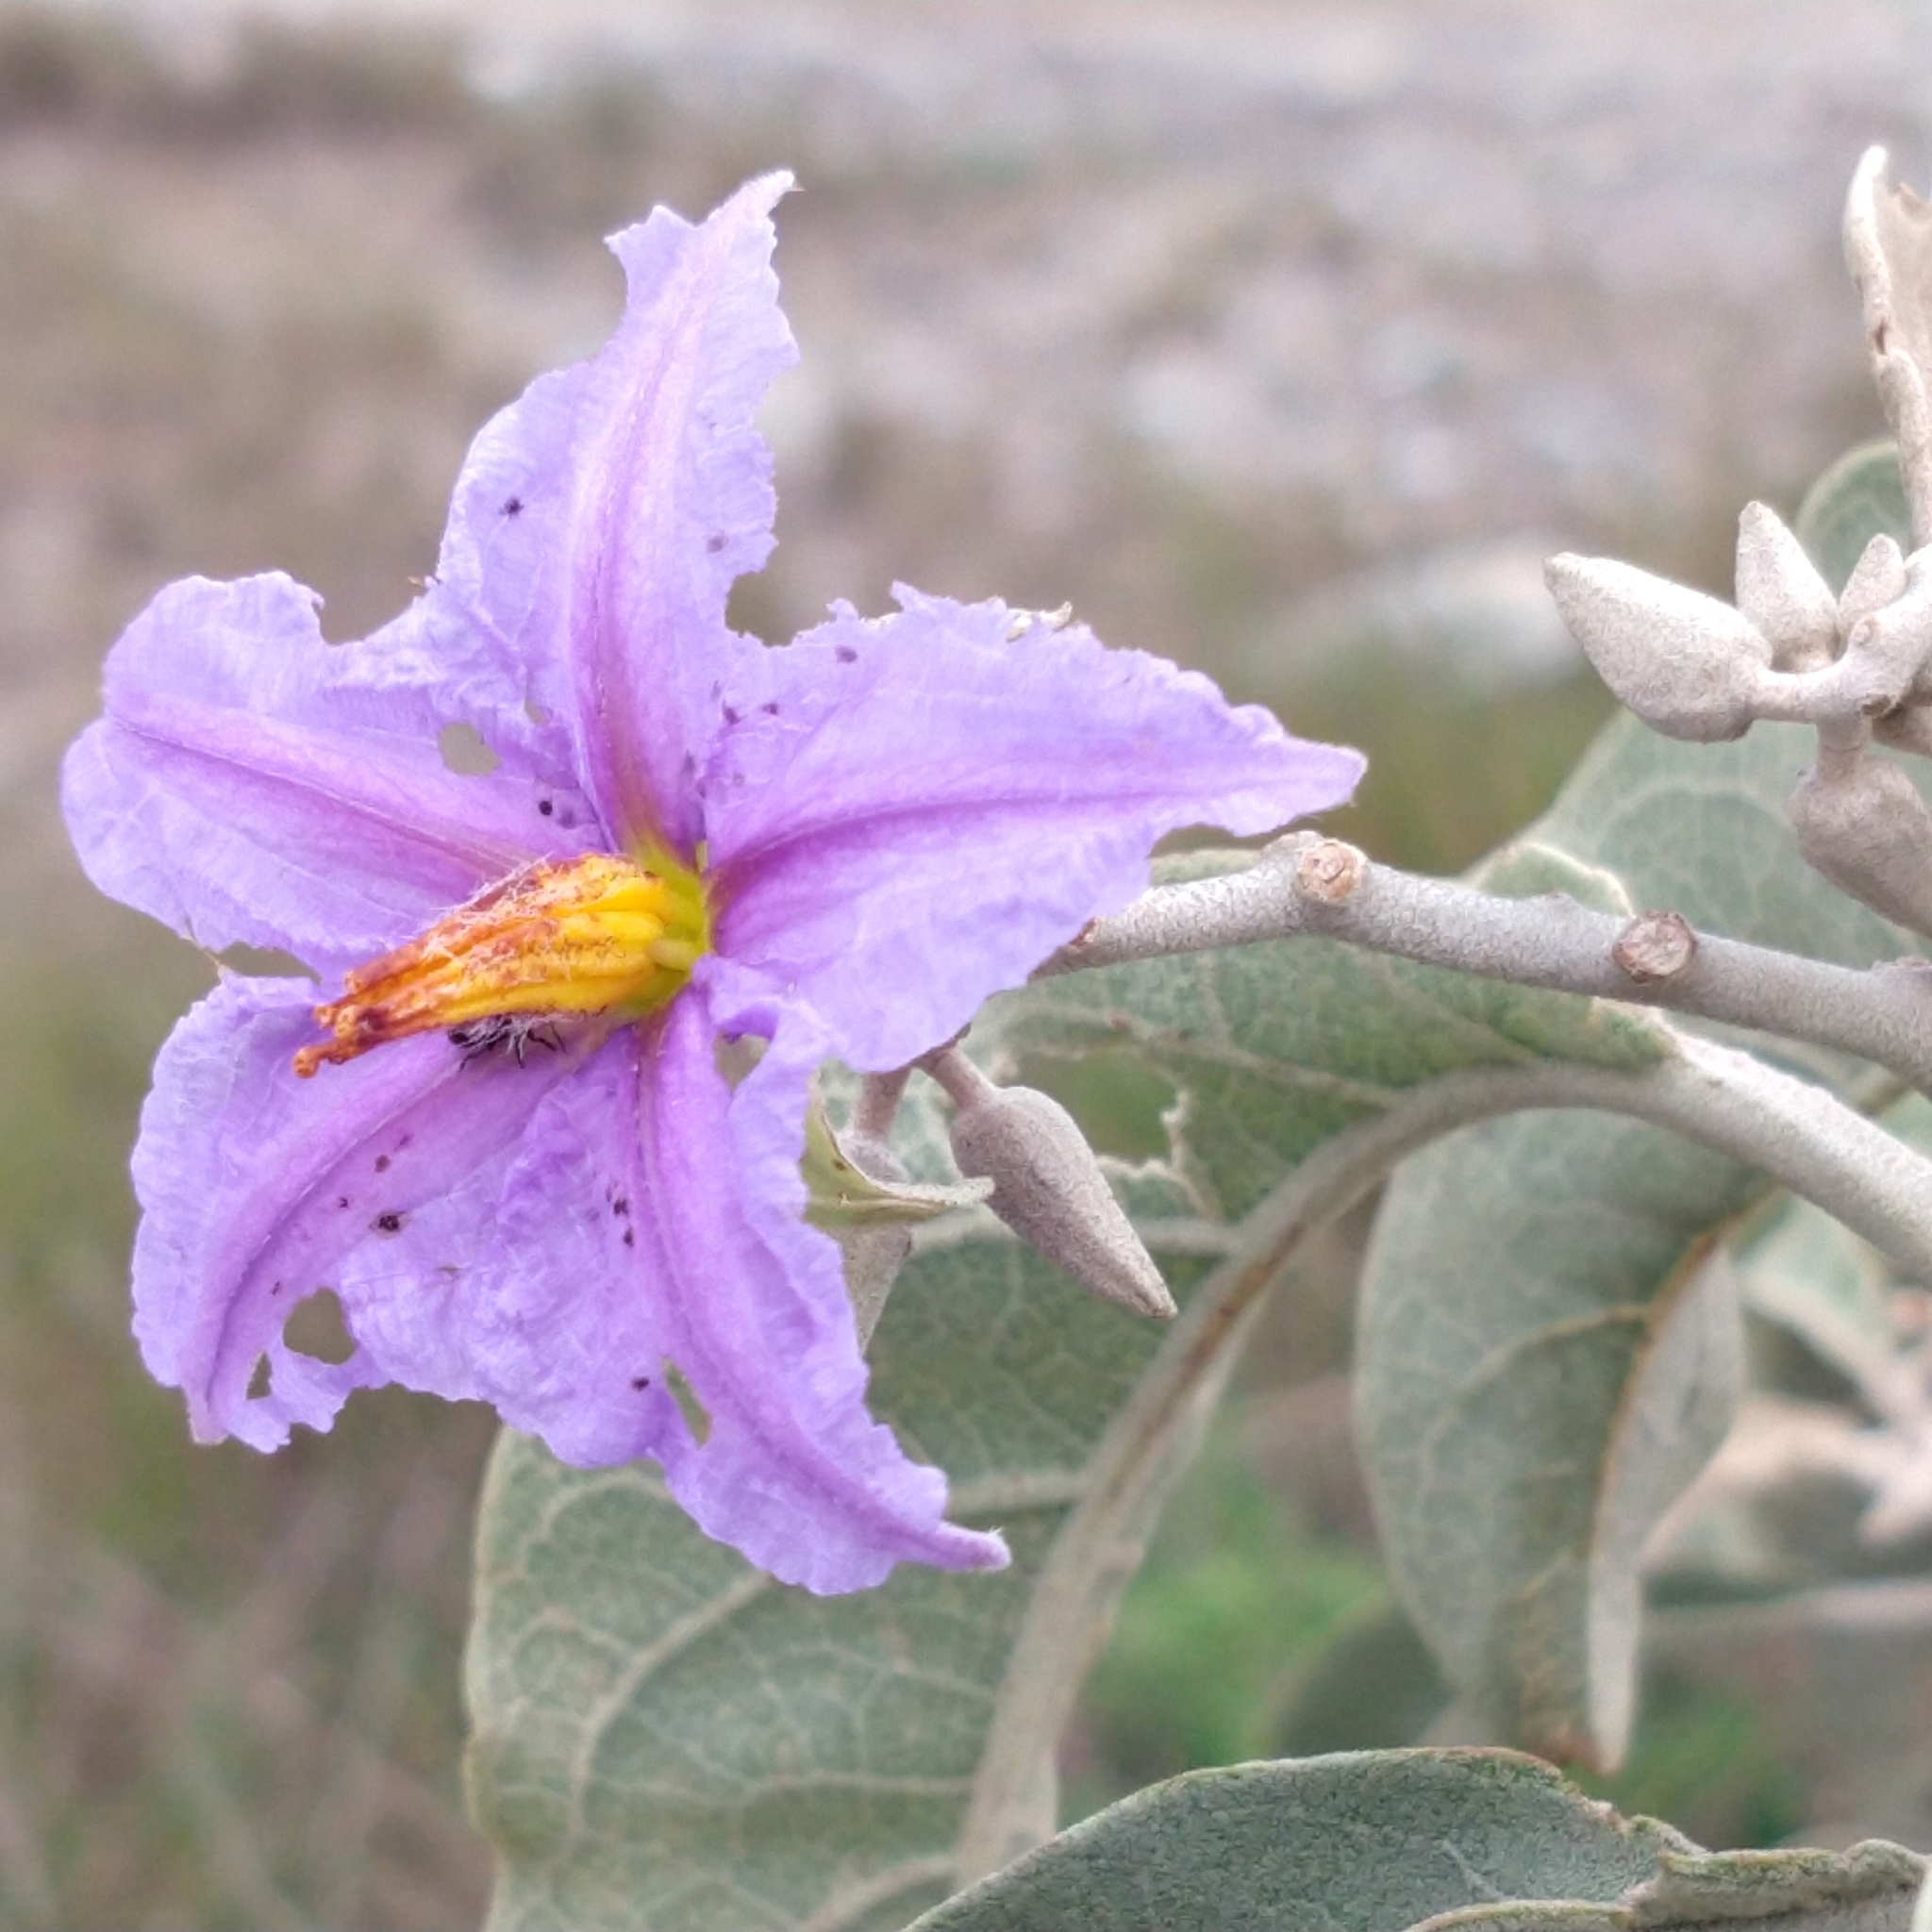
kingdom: Plantae
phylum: Tracheophyta
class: Magnoliopsida
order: Solanales
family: Solanaceae
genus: Solanum
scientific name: Solanum lycocarpum
